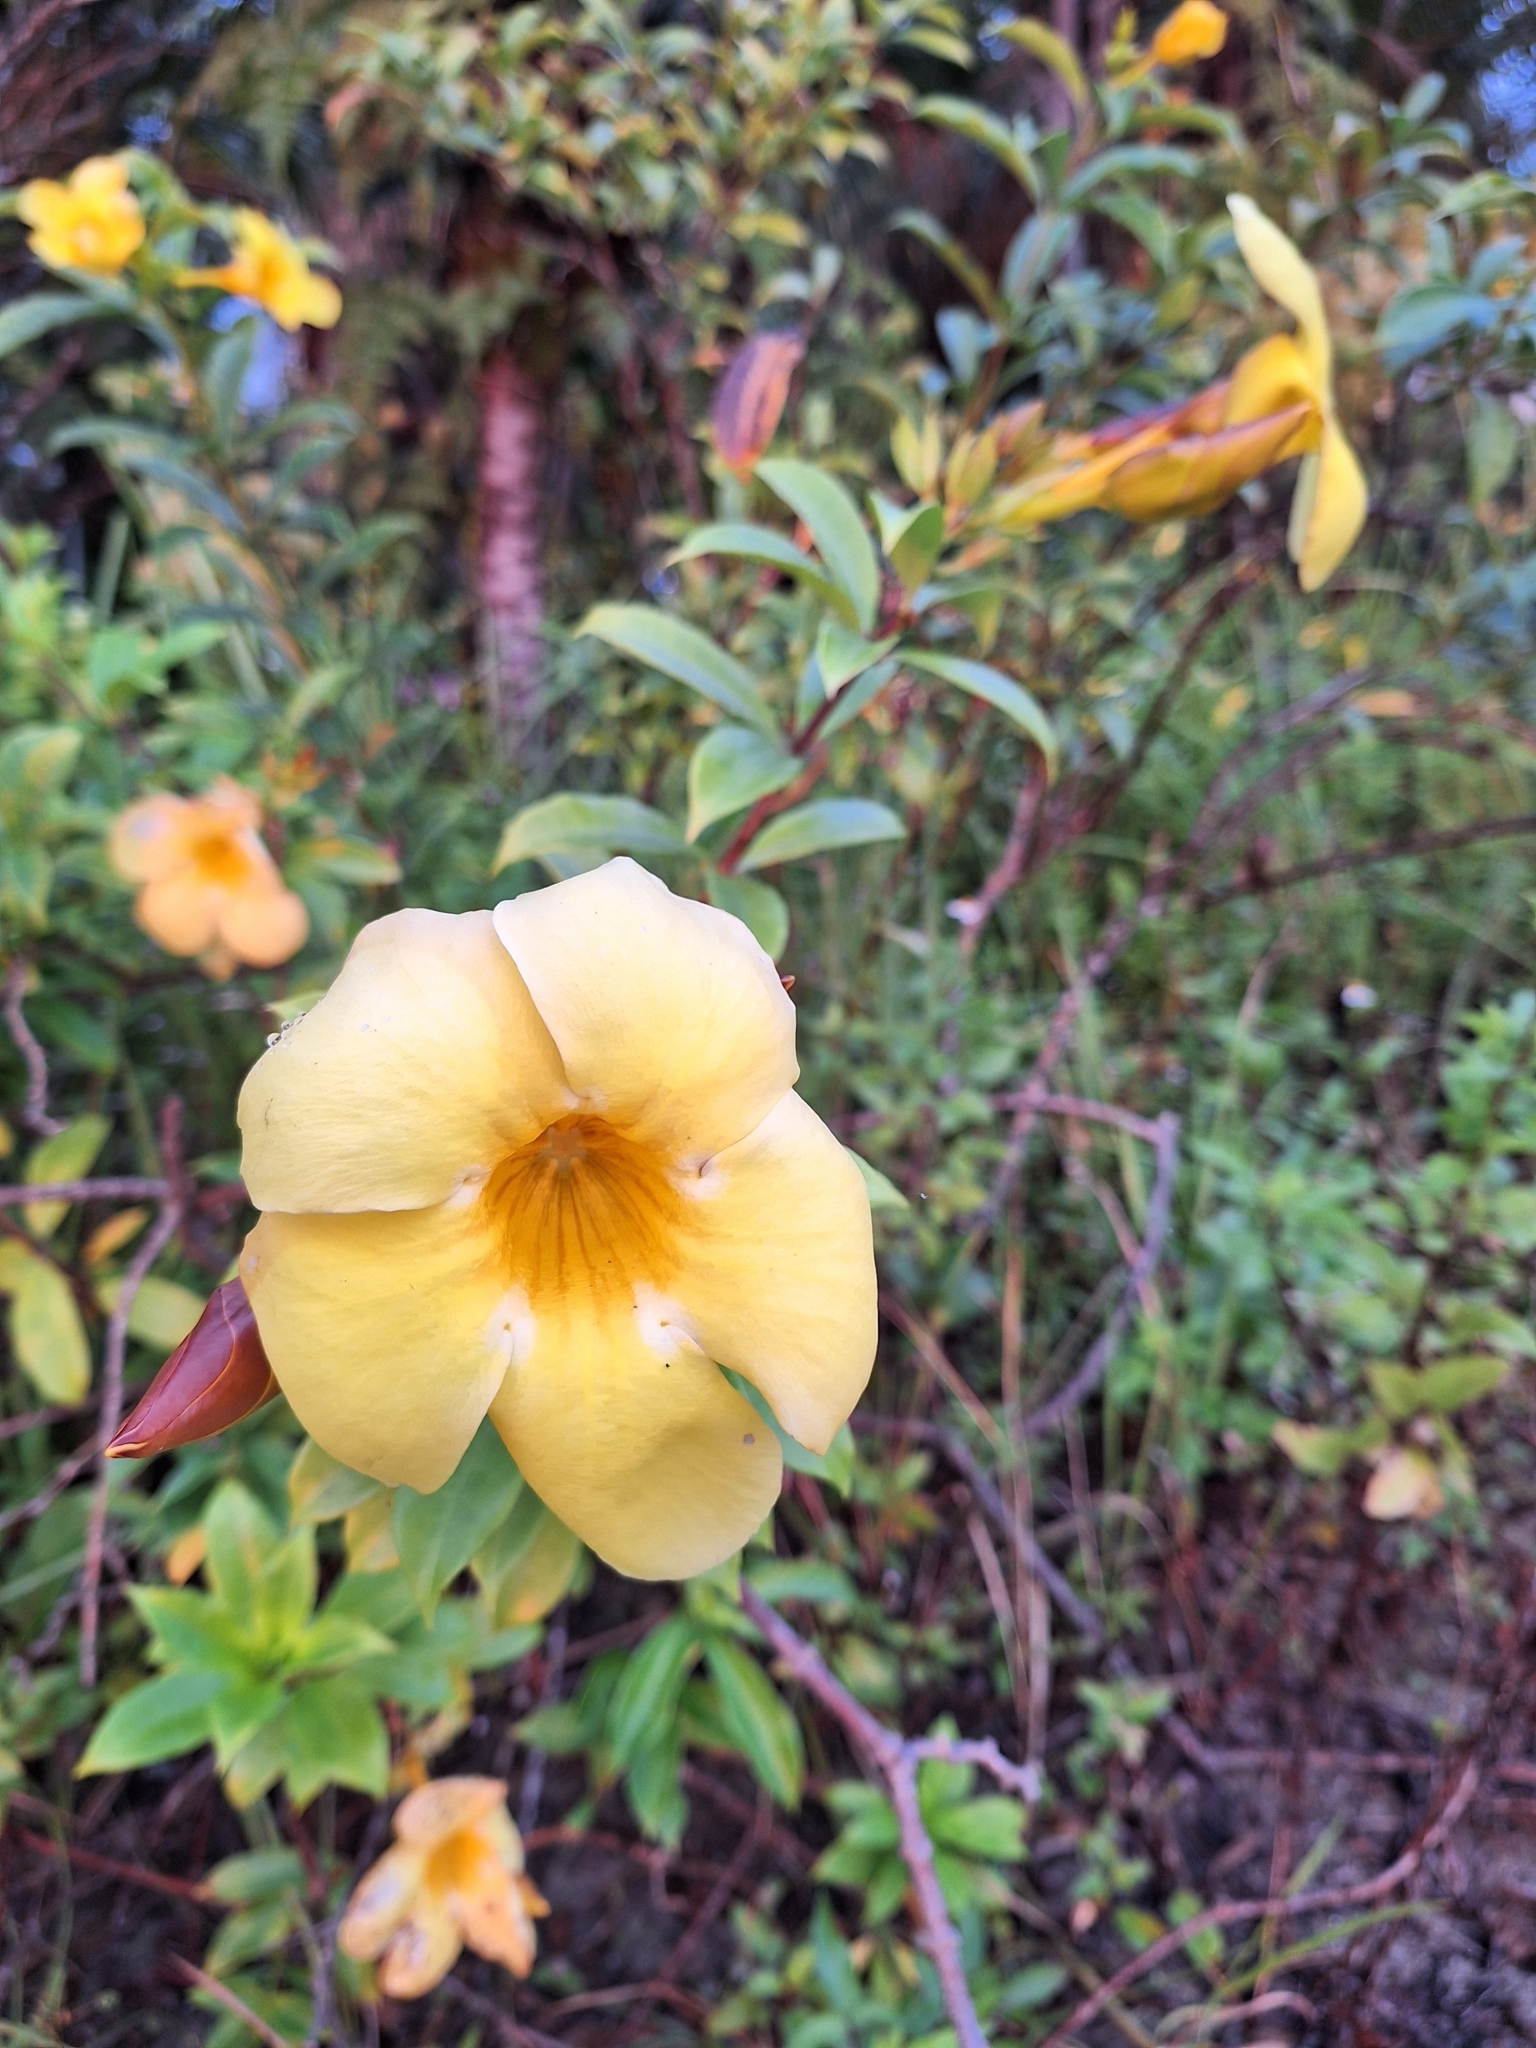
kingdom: Plantae
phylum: Tracheophyta
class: Magnoliopsida
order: Gentianales
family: Apocynaceae
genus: Allamanda
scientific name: Allamanda cathartica
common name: Golden trumpet
